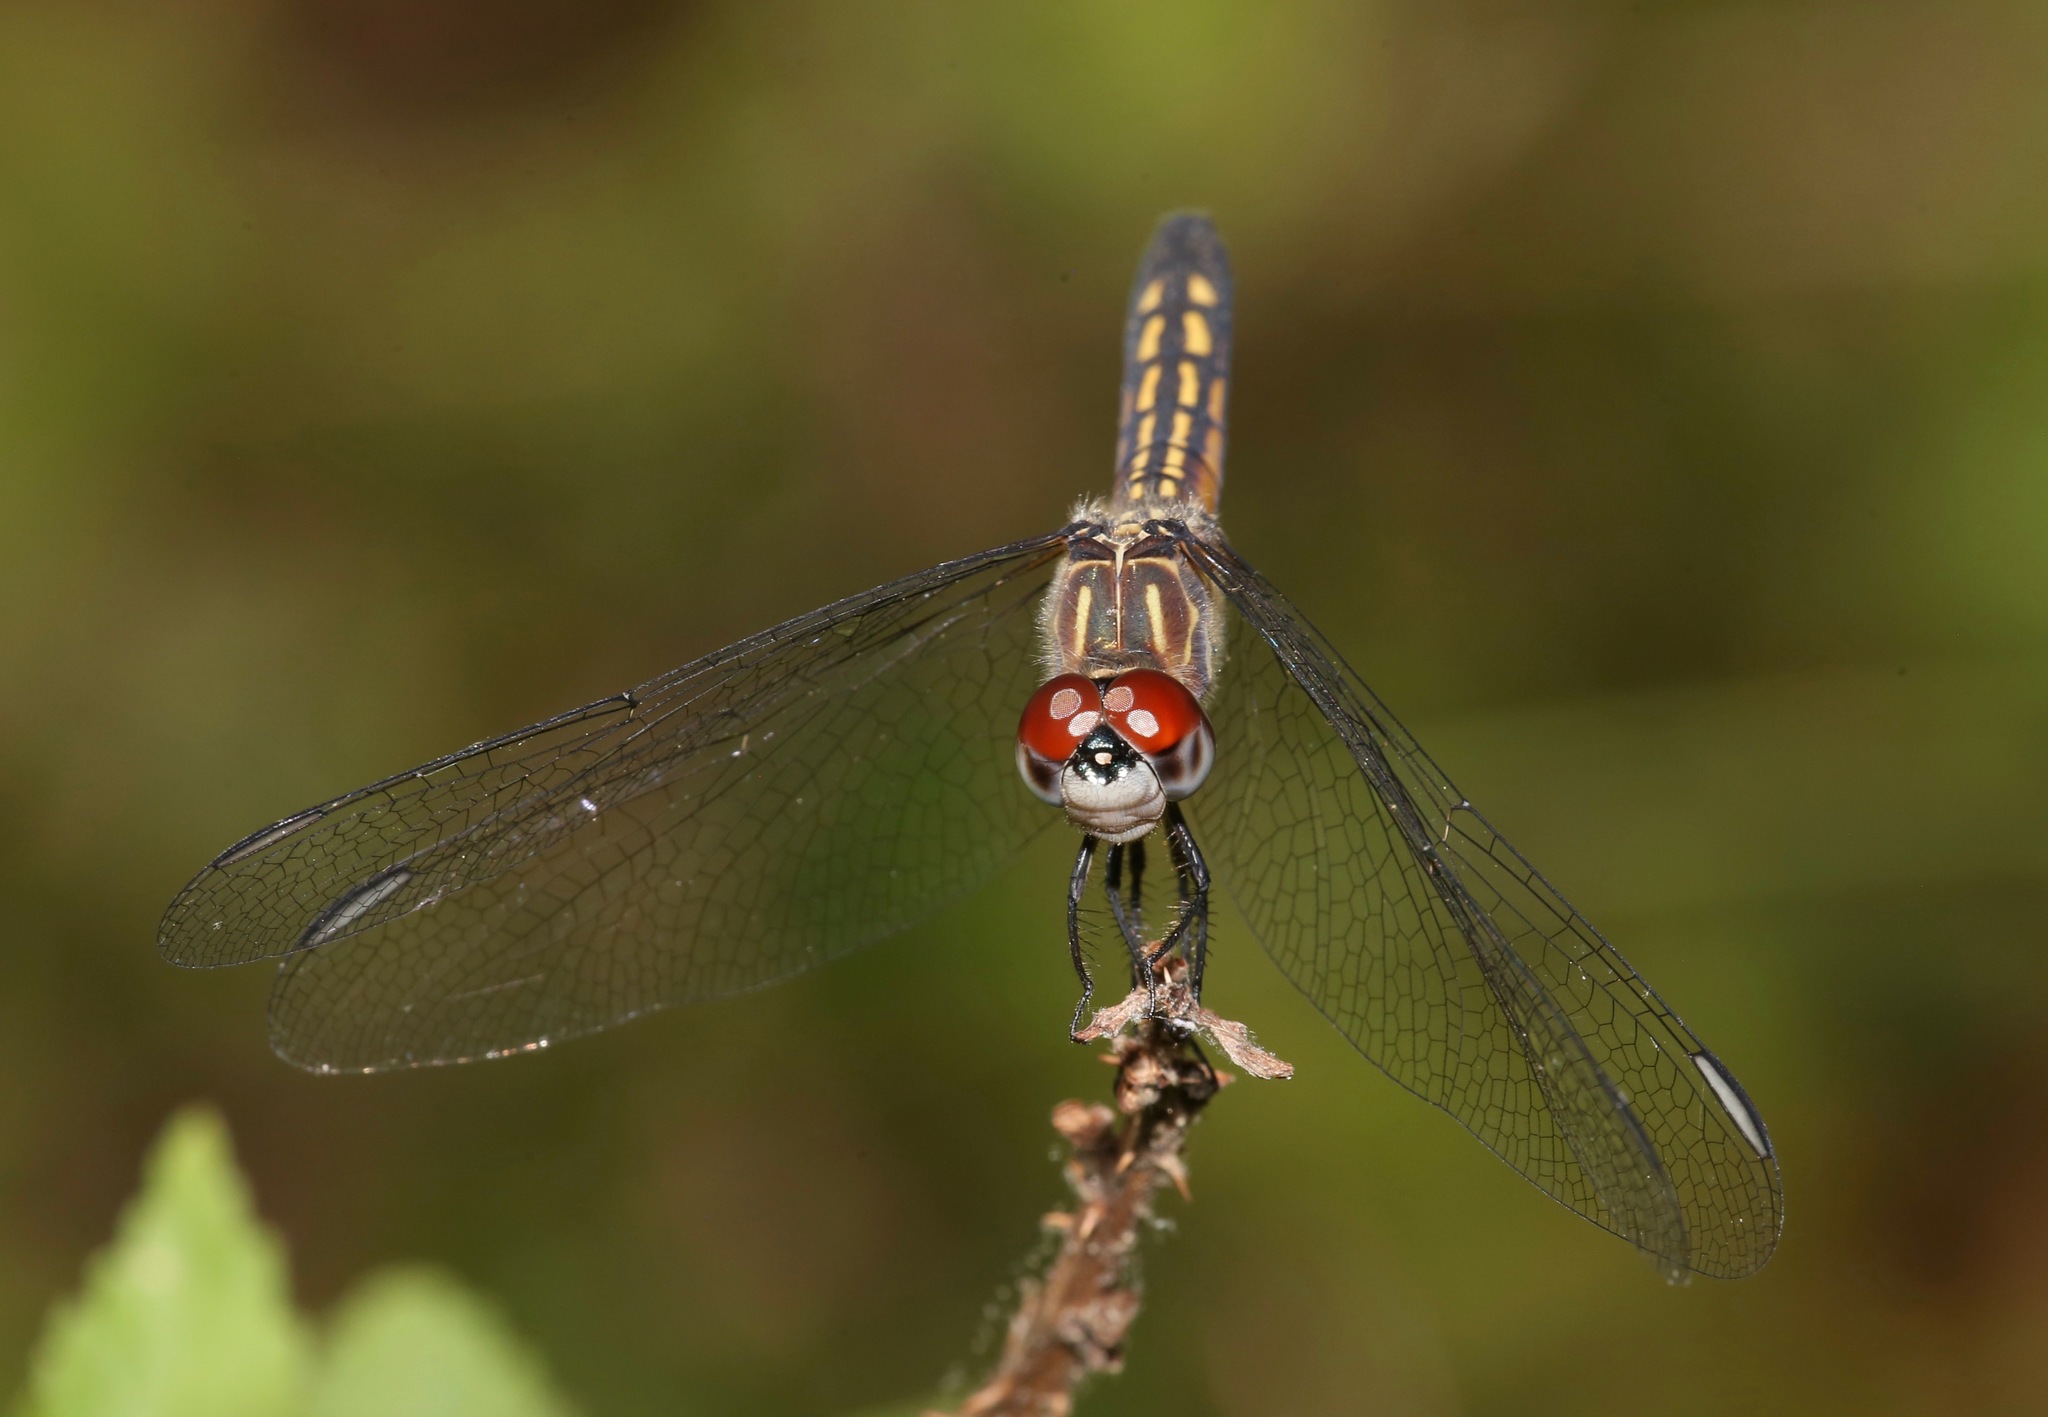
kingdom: Animalia
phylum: Arthropoda
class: Insecta
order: Odonata
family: Libellulidae
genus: Pachydiplax
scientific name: Pachydiplax longipennis
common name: Blue dasher
